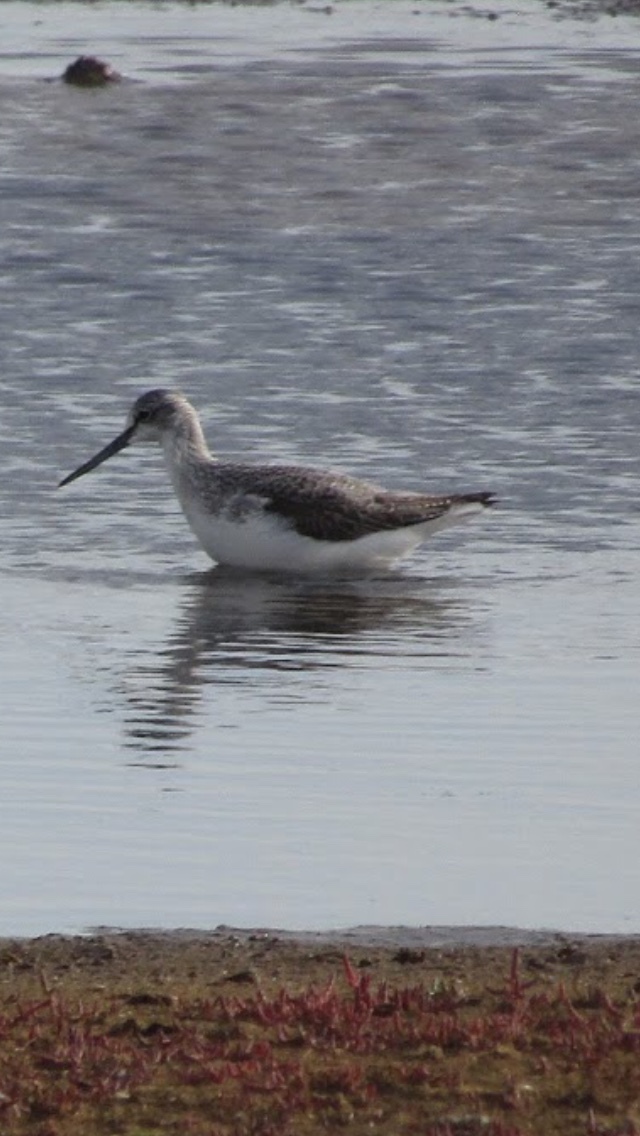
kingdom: Animalia
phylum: Chordata
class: Aves
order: Charadriiformes
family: Scolopacidae
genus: Tringa
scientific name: Tringa nebularia
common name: Common greenshank
